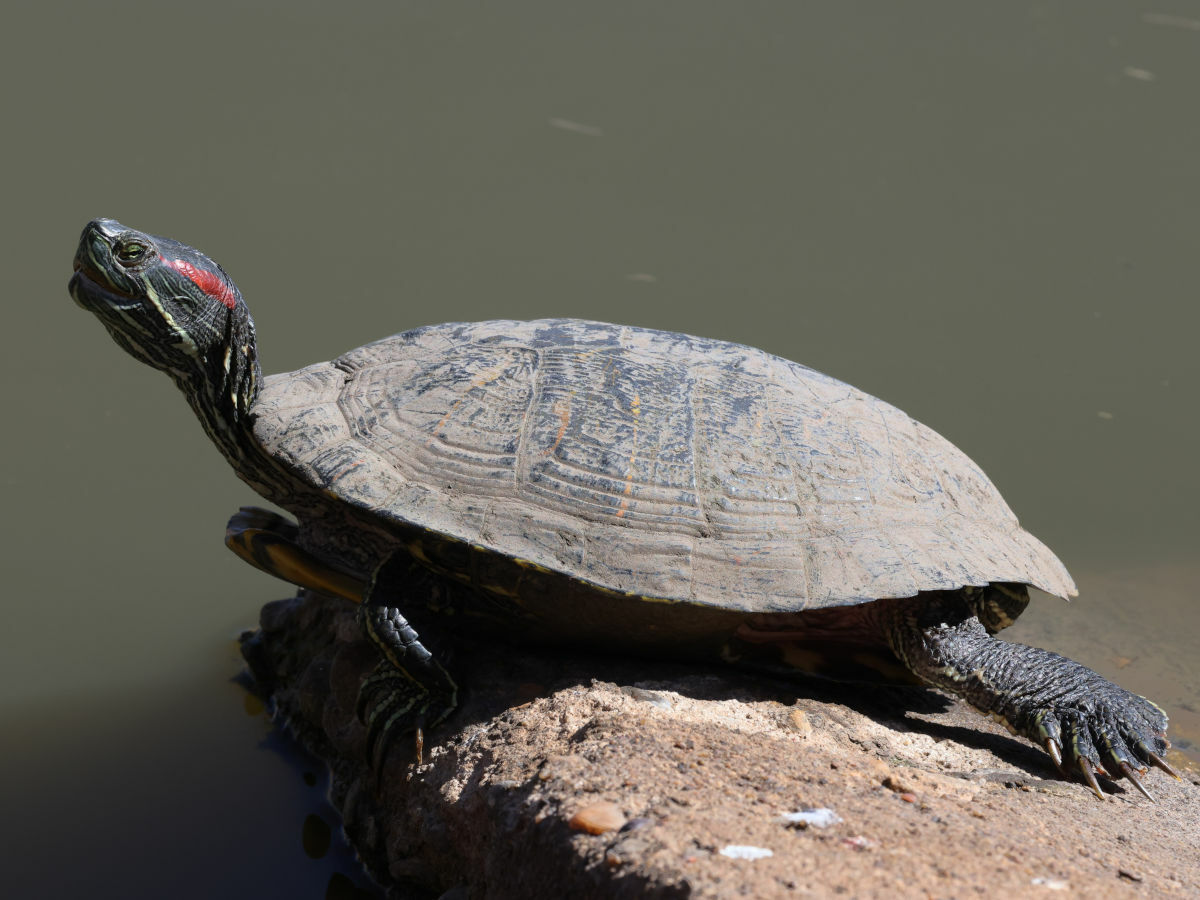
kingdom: Animalia
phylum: Chordata
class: Testudines
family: Emydidae
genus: Trachemys
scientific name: Trachemys scripta
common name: Slider
